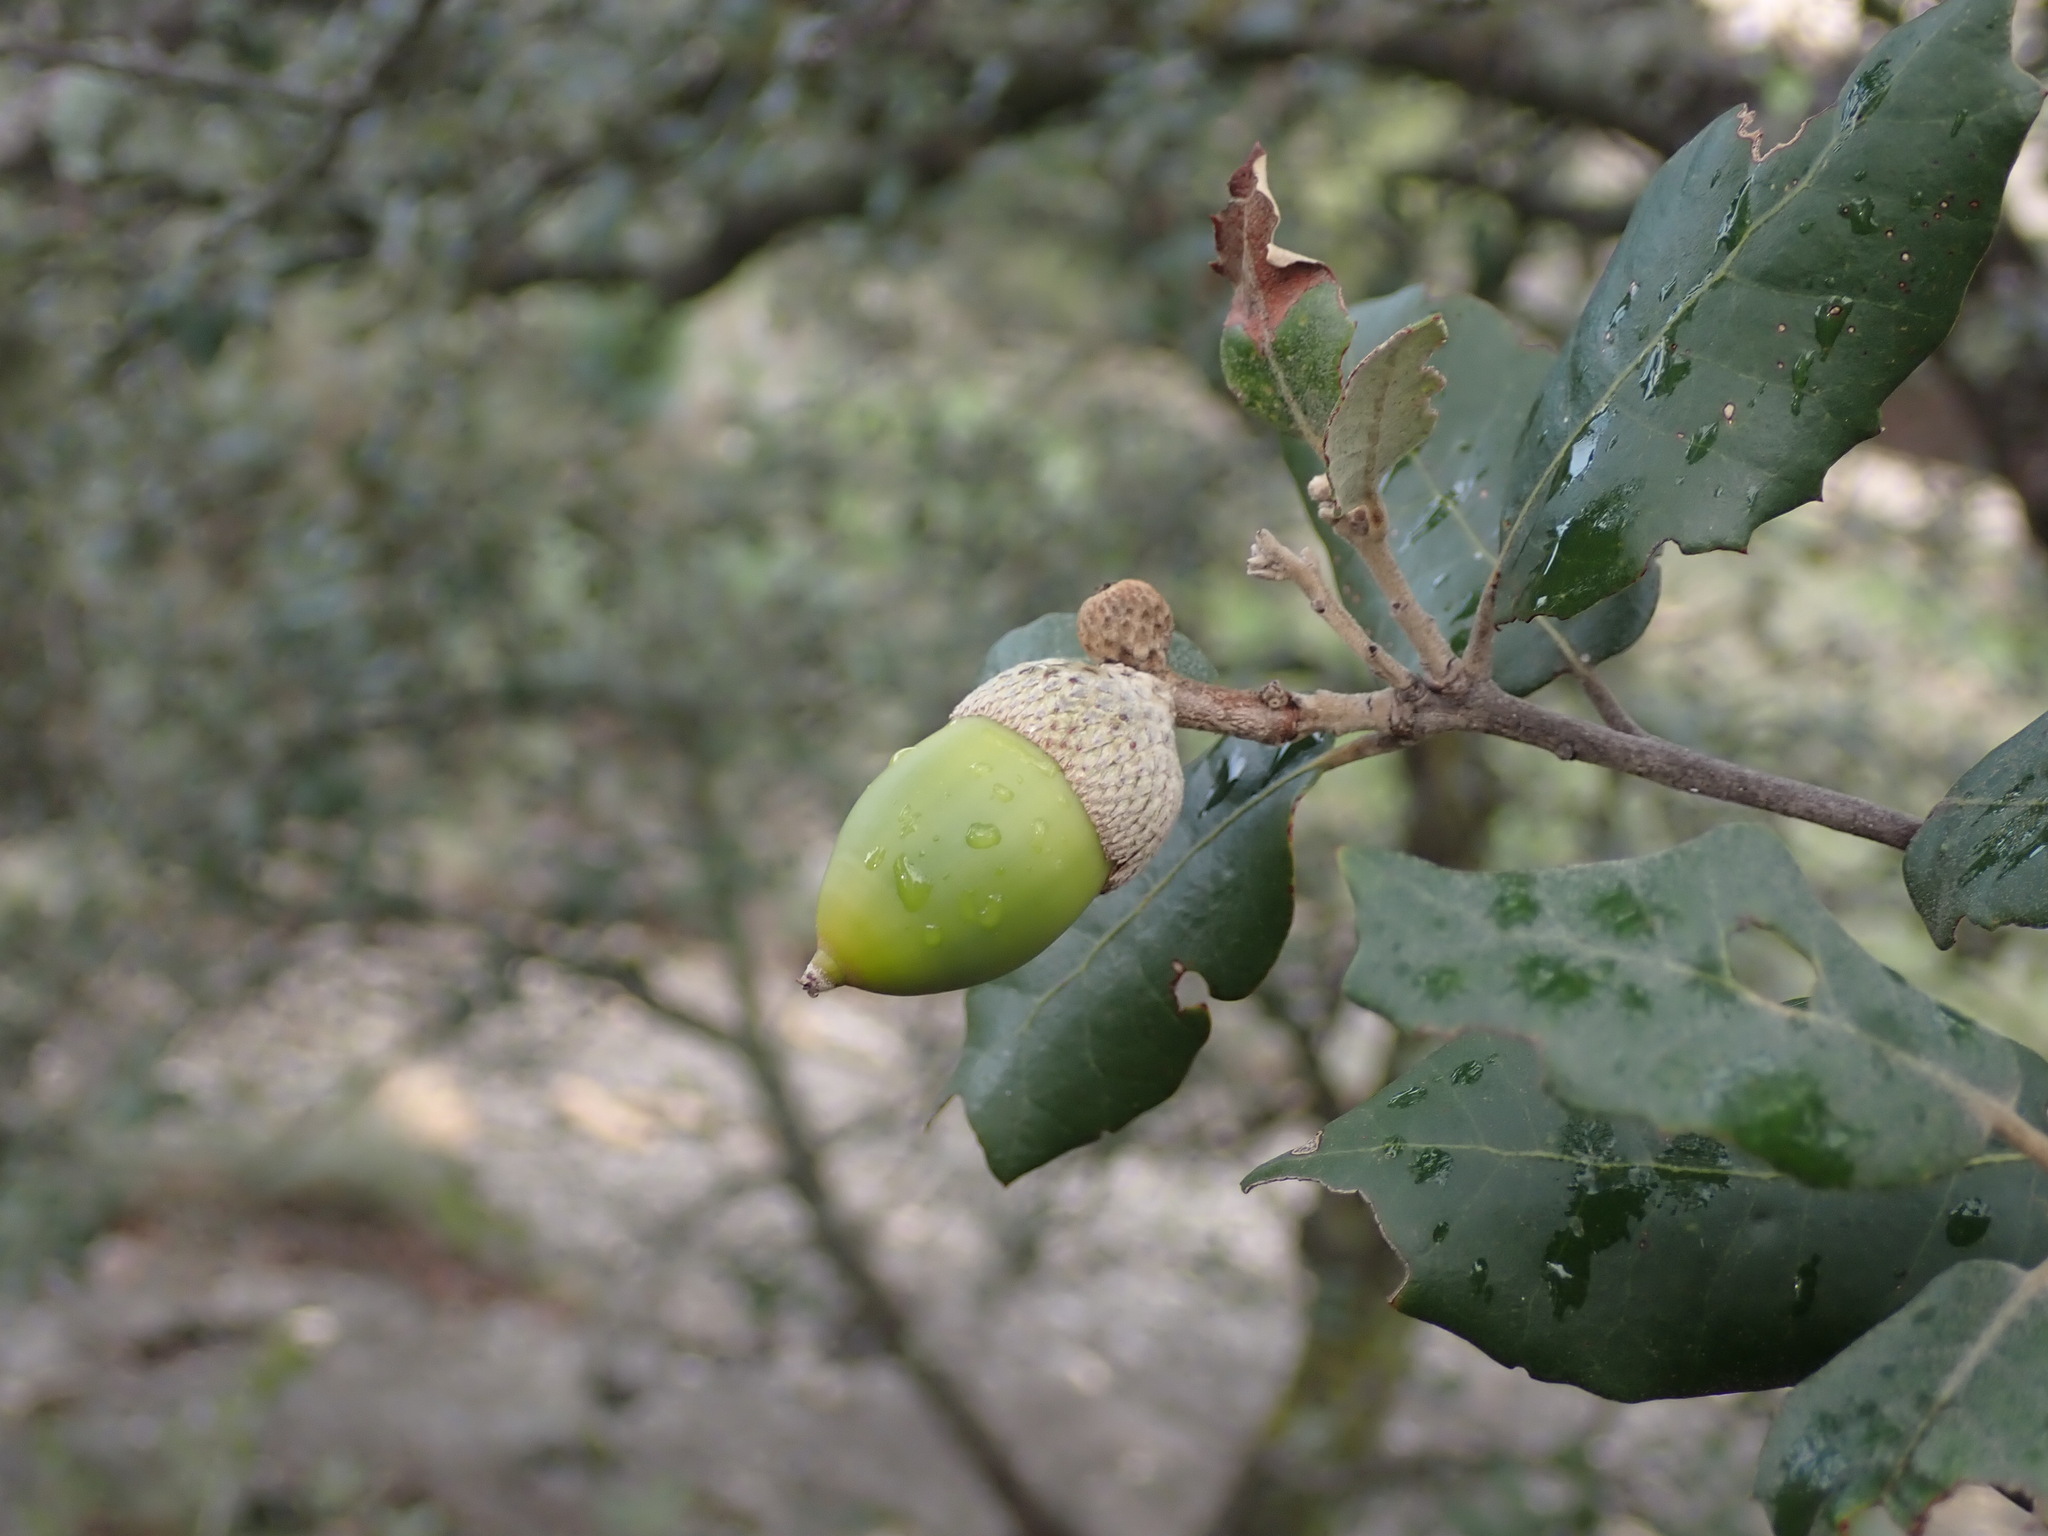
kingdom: Plantae
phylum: Tracheophyta
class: Magnoliopsida
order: Fagales
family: Fagaceae
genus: Quercus
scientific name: Quercus ilex
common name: Evergreen oak
